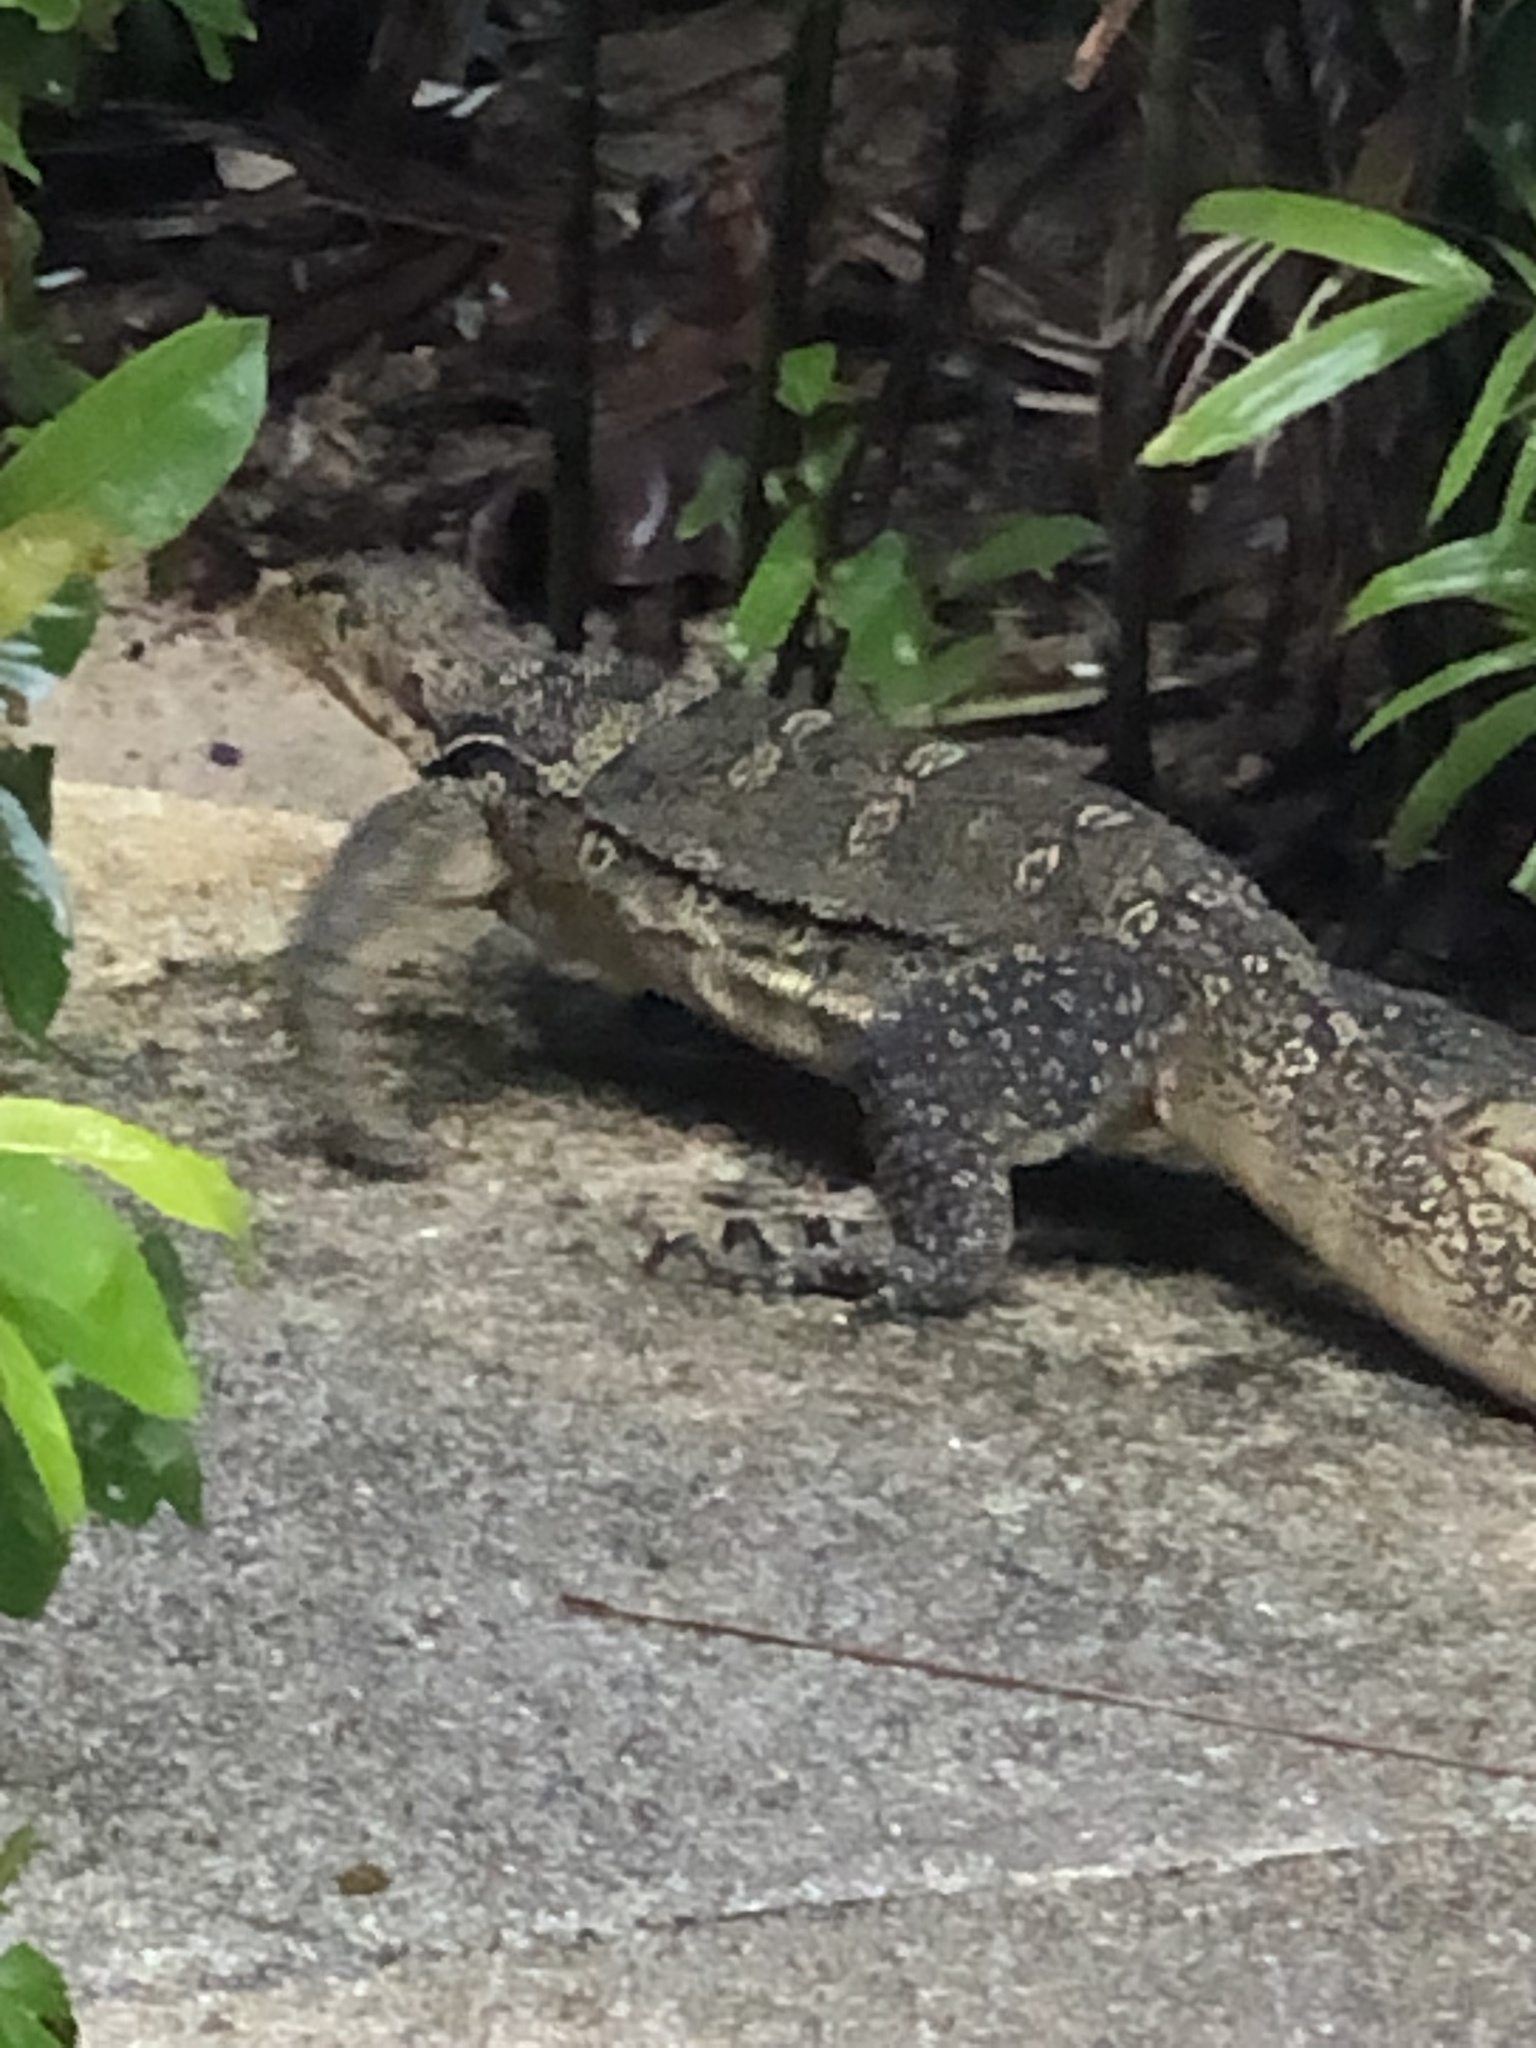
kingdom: Animalia
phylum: Chordata
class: Squamata
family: Varanidae
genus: Varanus
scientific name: Varanus salvator
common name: Common water monitor
